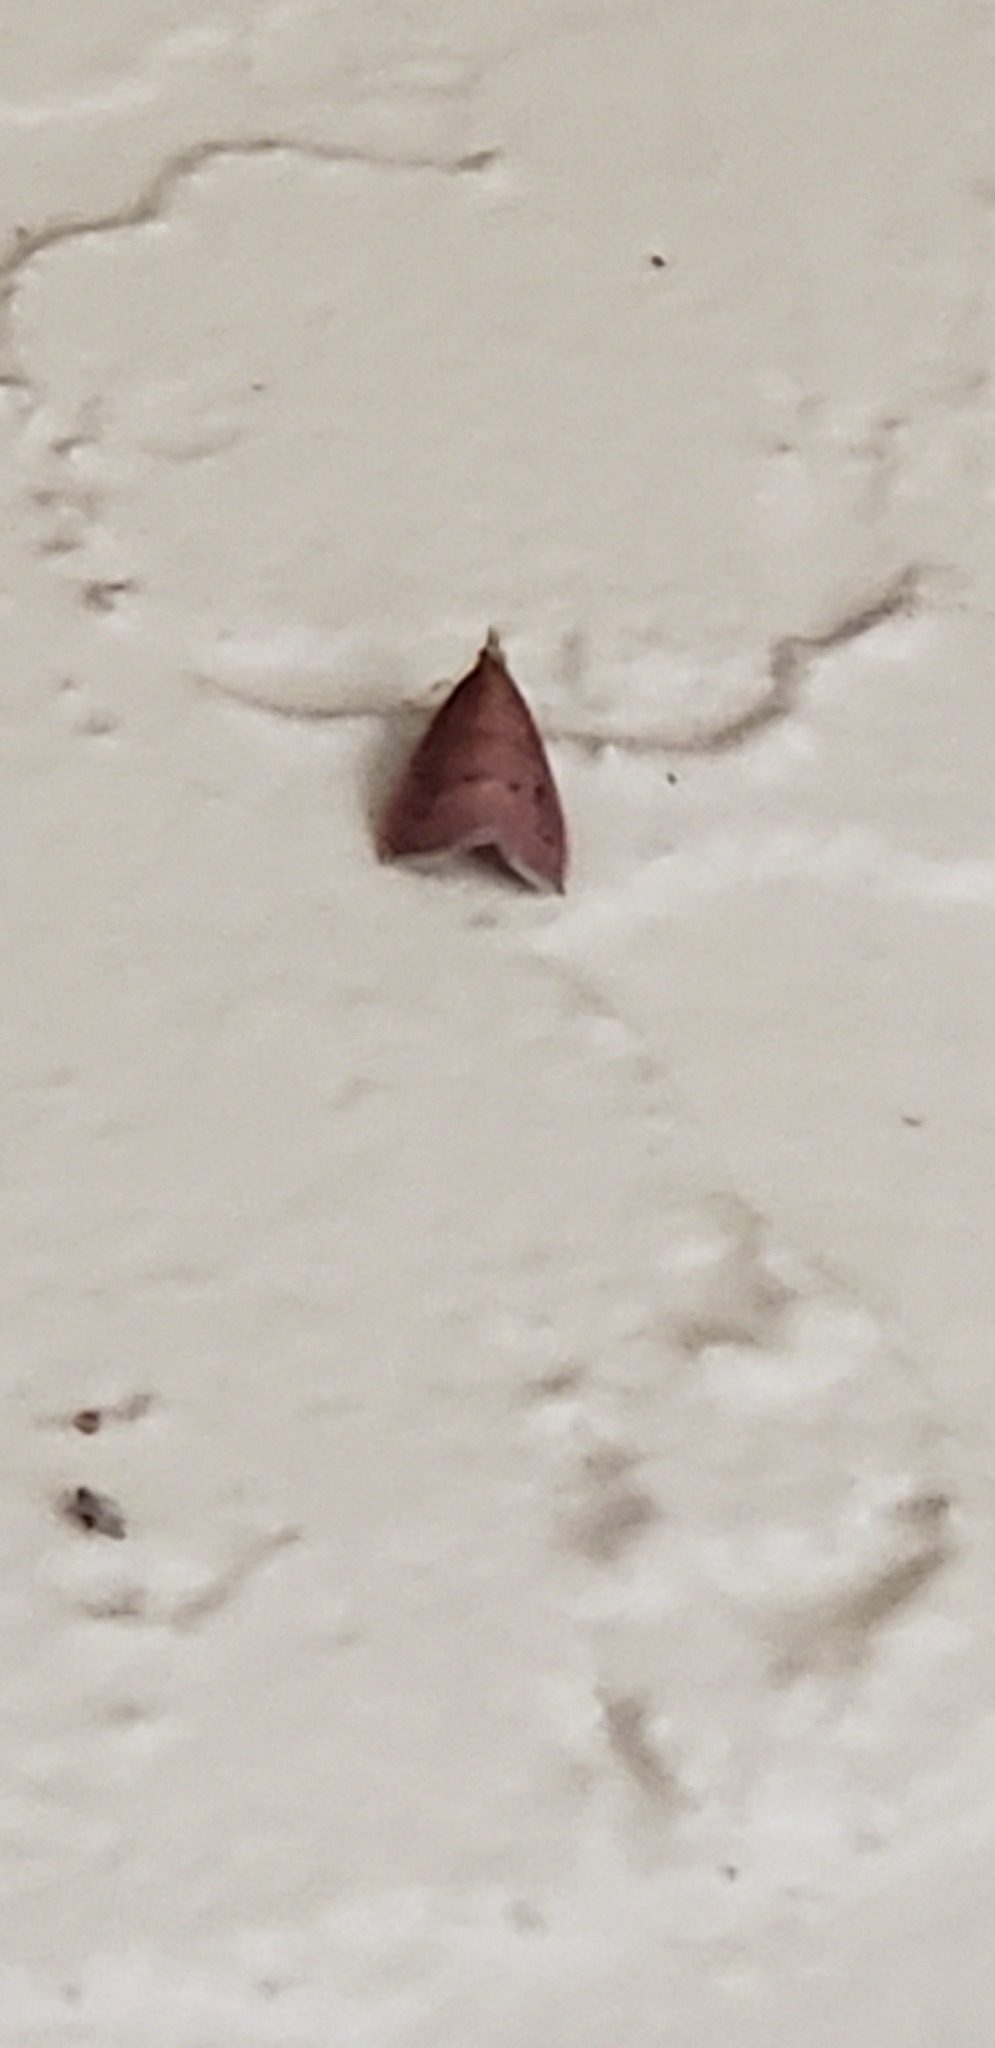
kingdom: Animalia
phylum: Arthropoda
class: Insecta
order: Lepidoptera
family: Crambidae
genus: Oenobotys
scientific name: Oenobotys vinotinctalis
